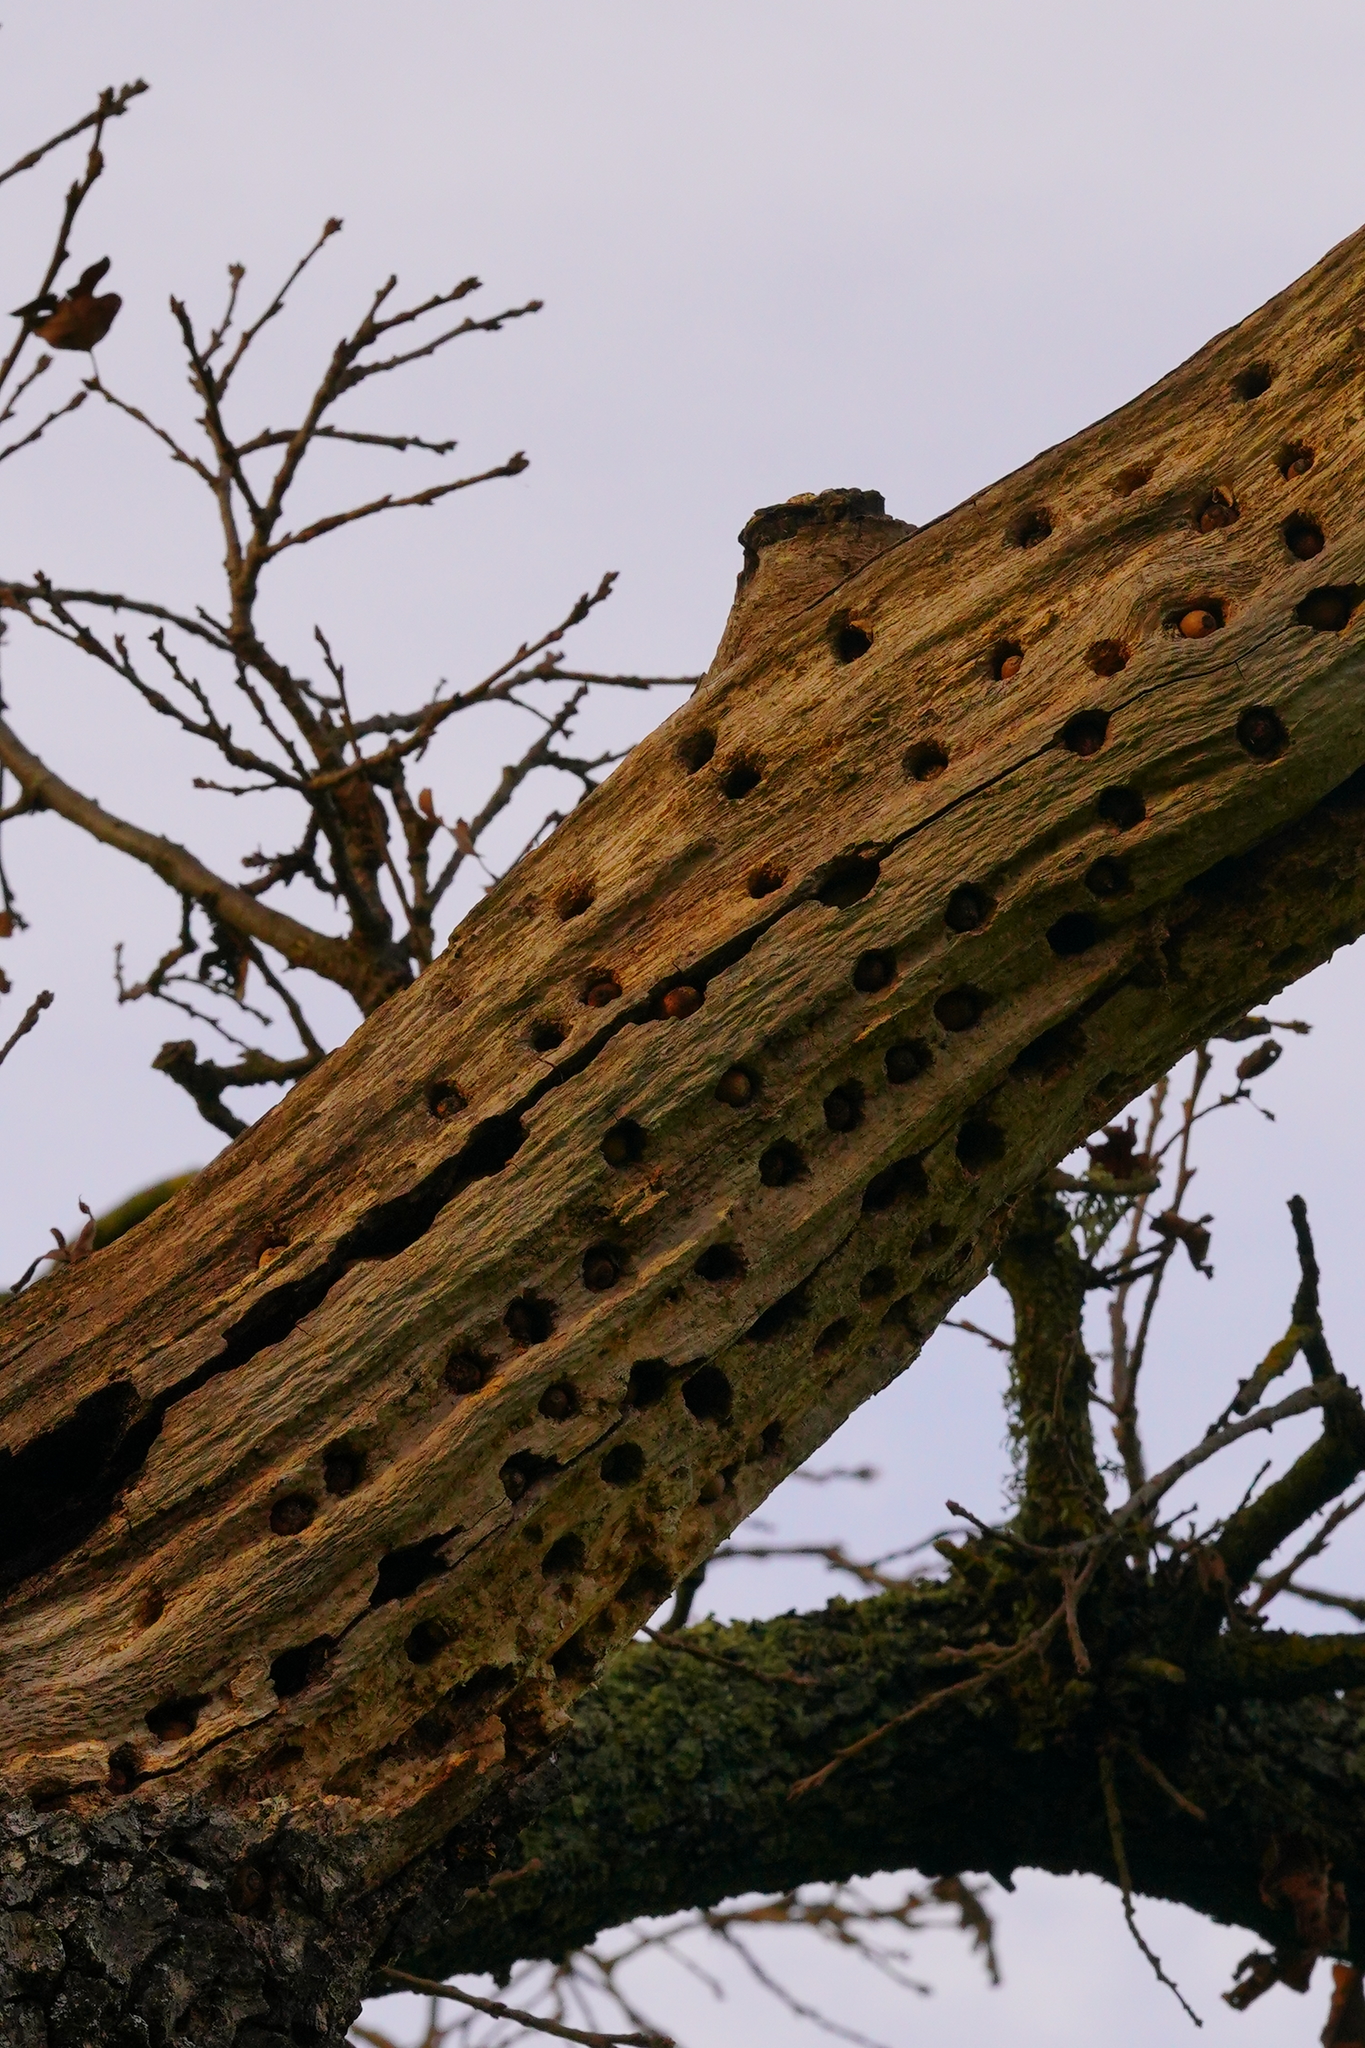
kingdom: Animalia
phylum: Chordata
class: Aves
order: Piciformes
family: Picidae
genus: Melanerpes
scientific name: Melanerpes formicivorus
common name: Acorn woodpecker
